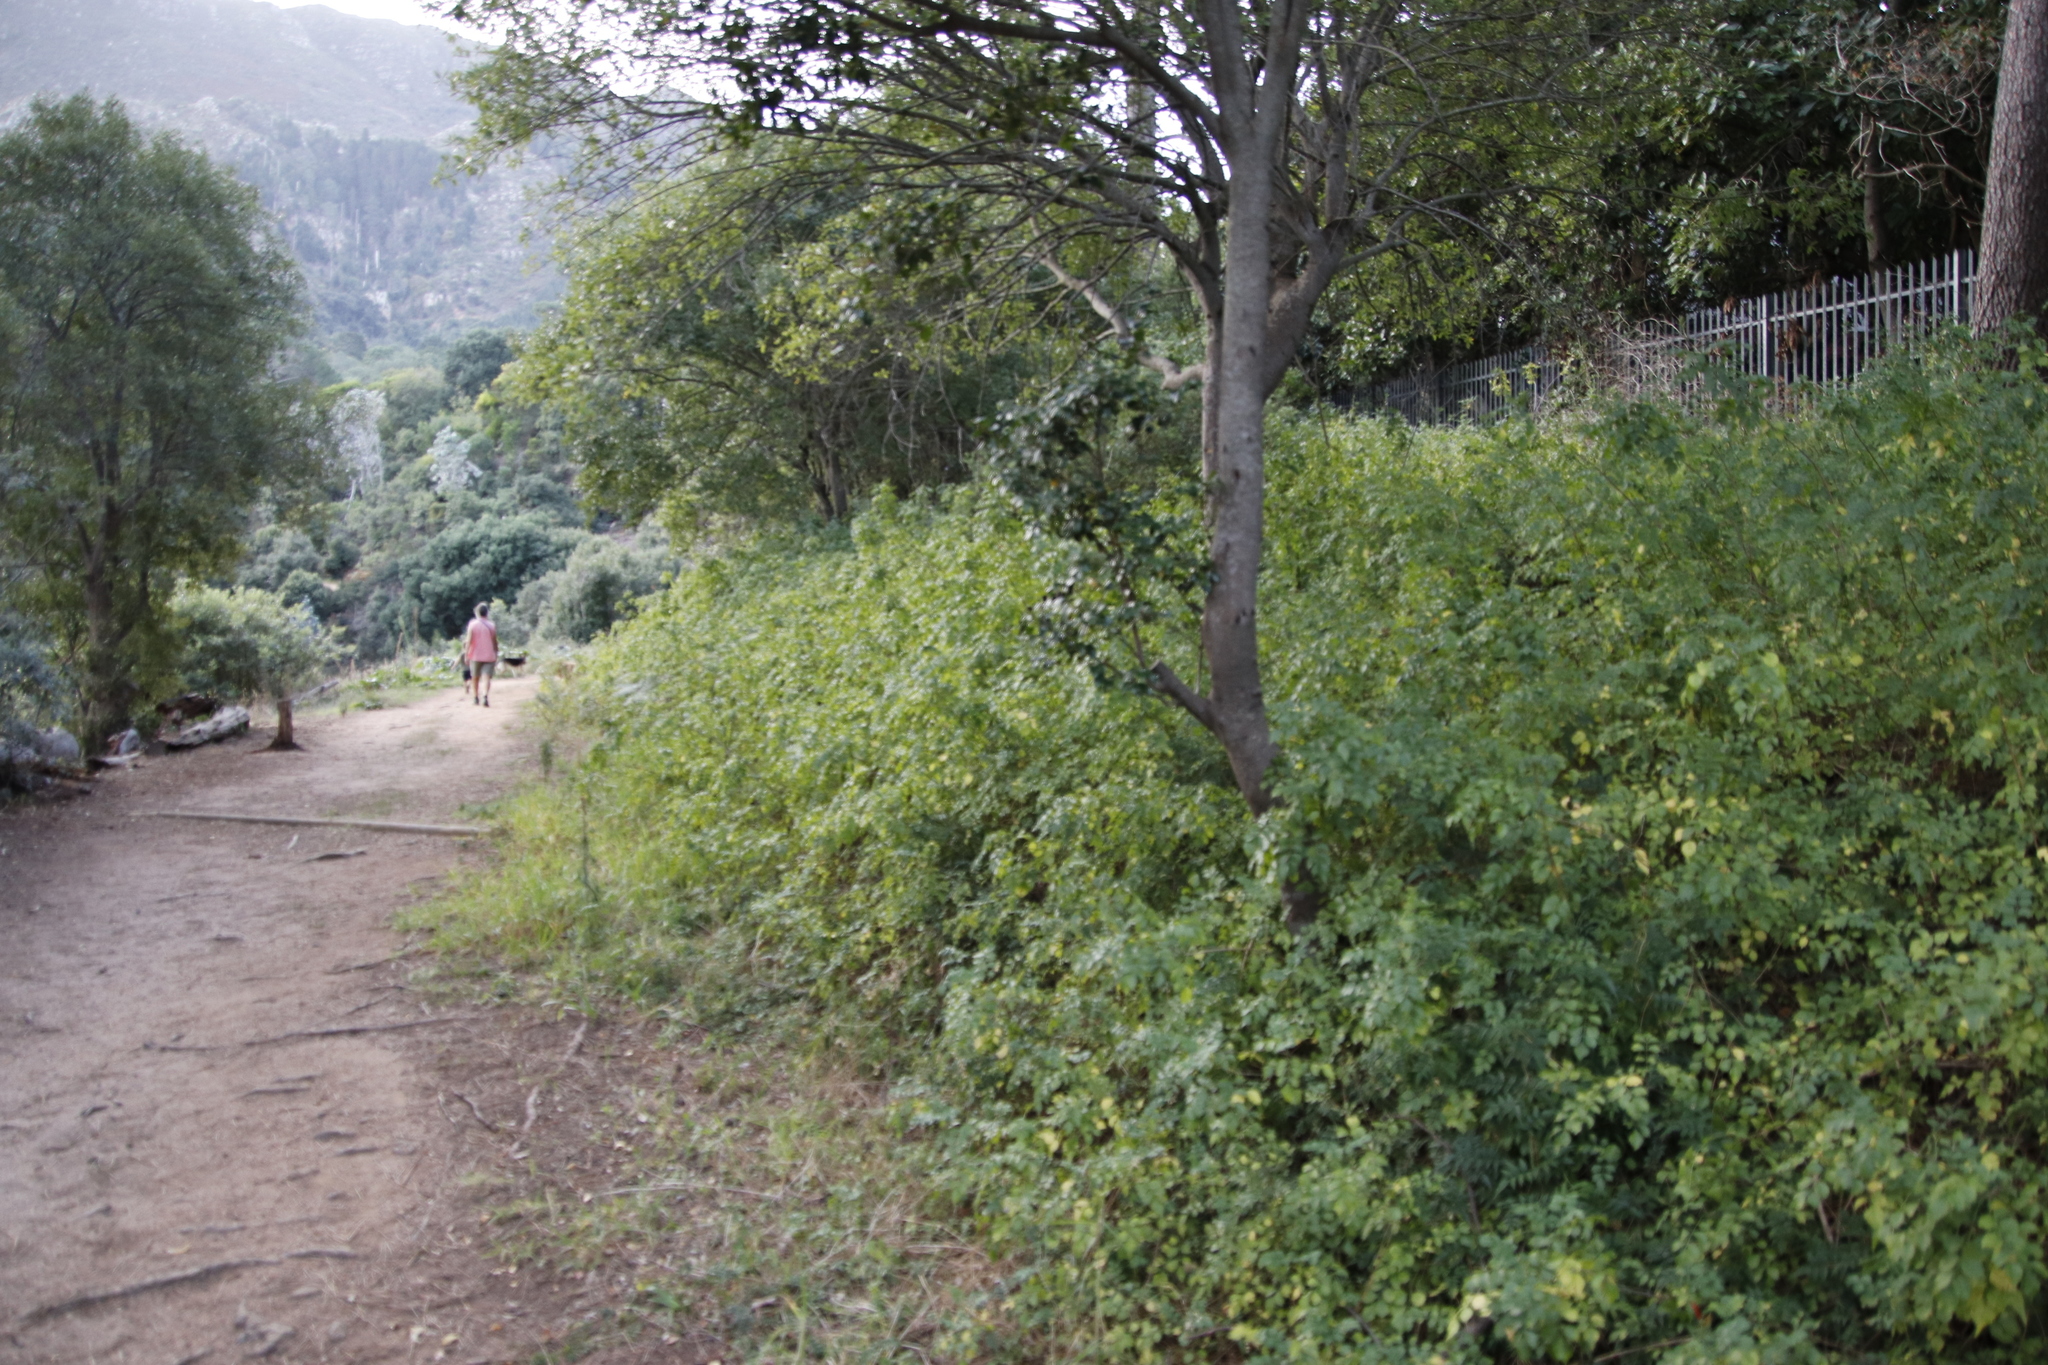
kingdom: Plantae
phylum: Tracheophyta
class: Magnoliopsida
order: Lamiales
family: Bignoniaceae
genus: Tecomaria
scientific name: Tecomaria capensis
